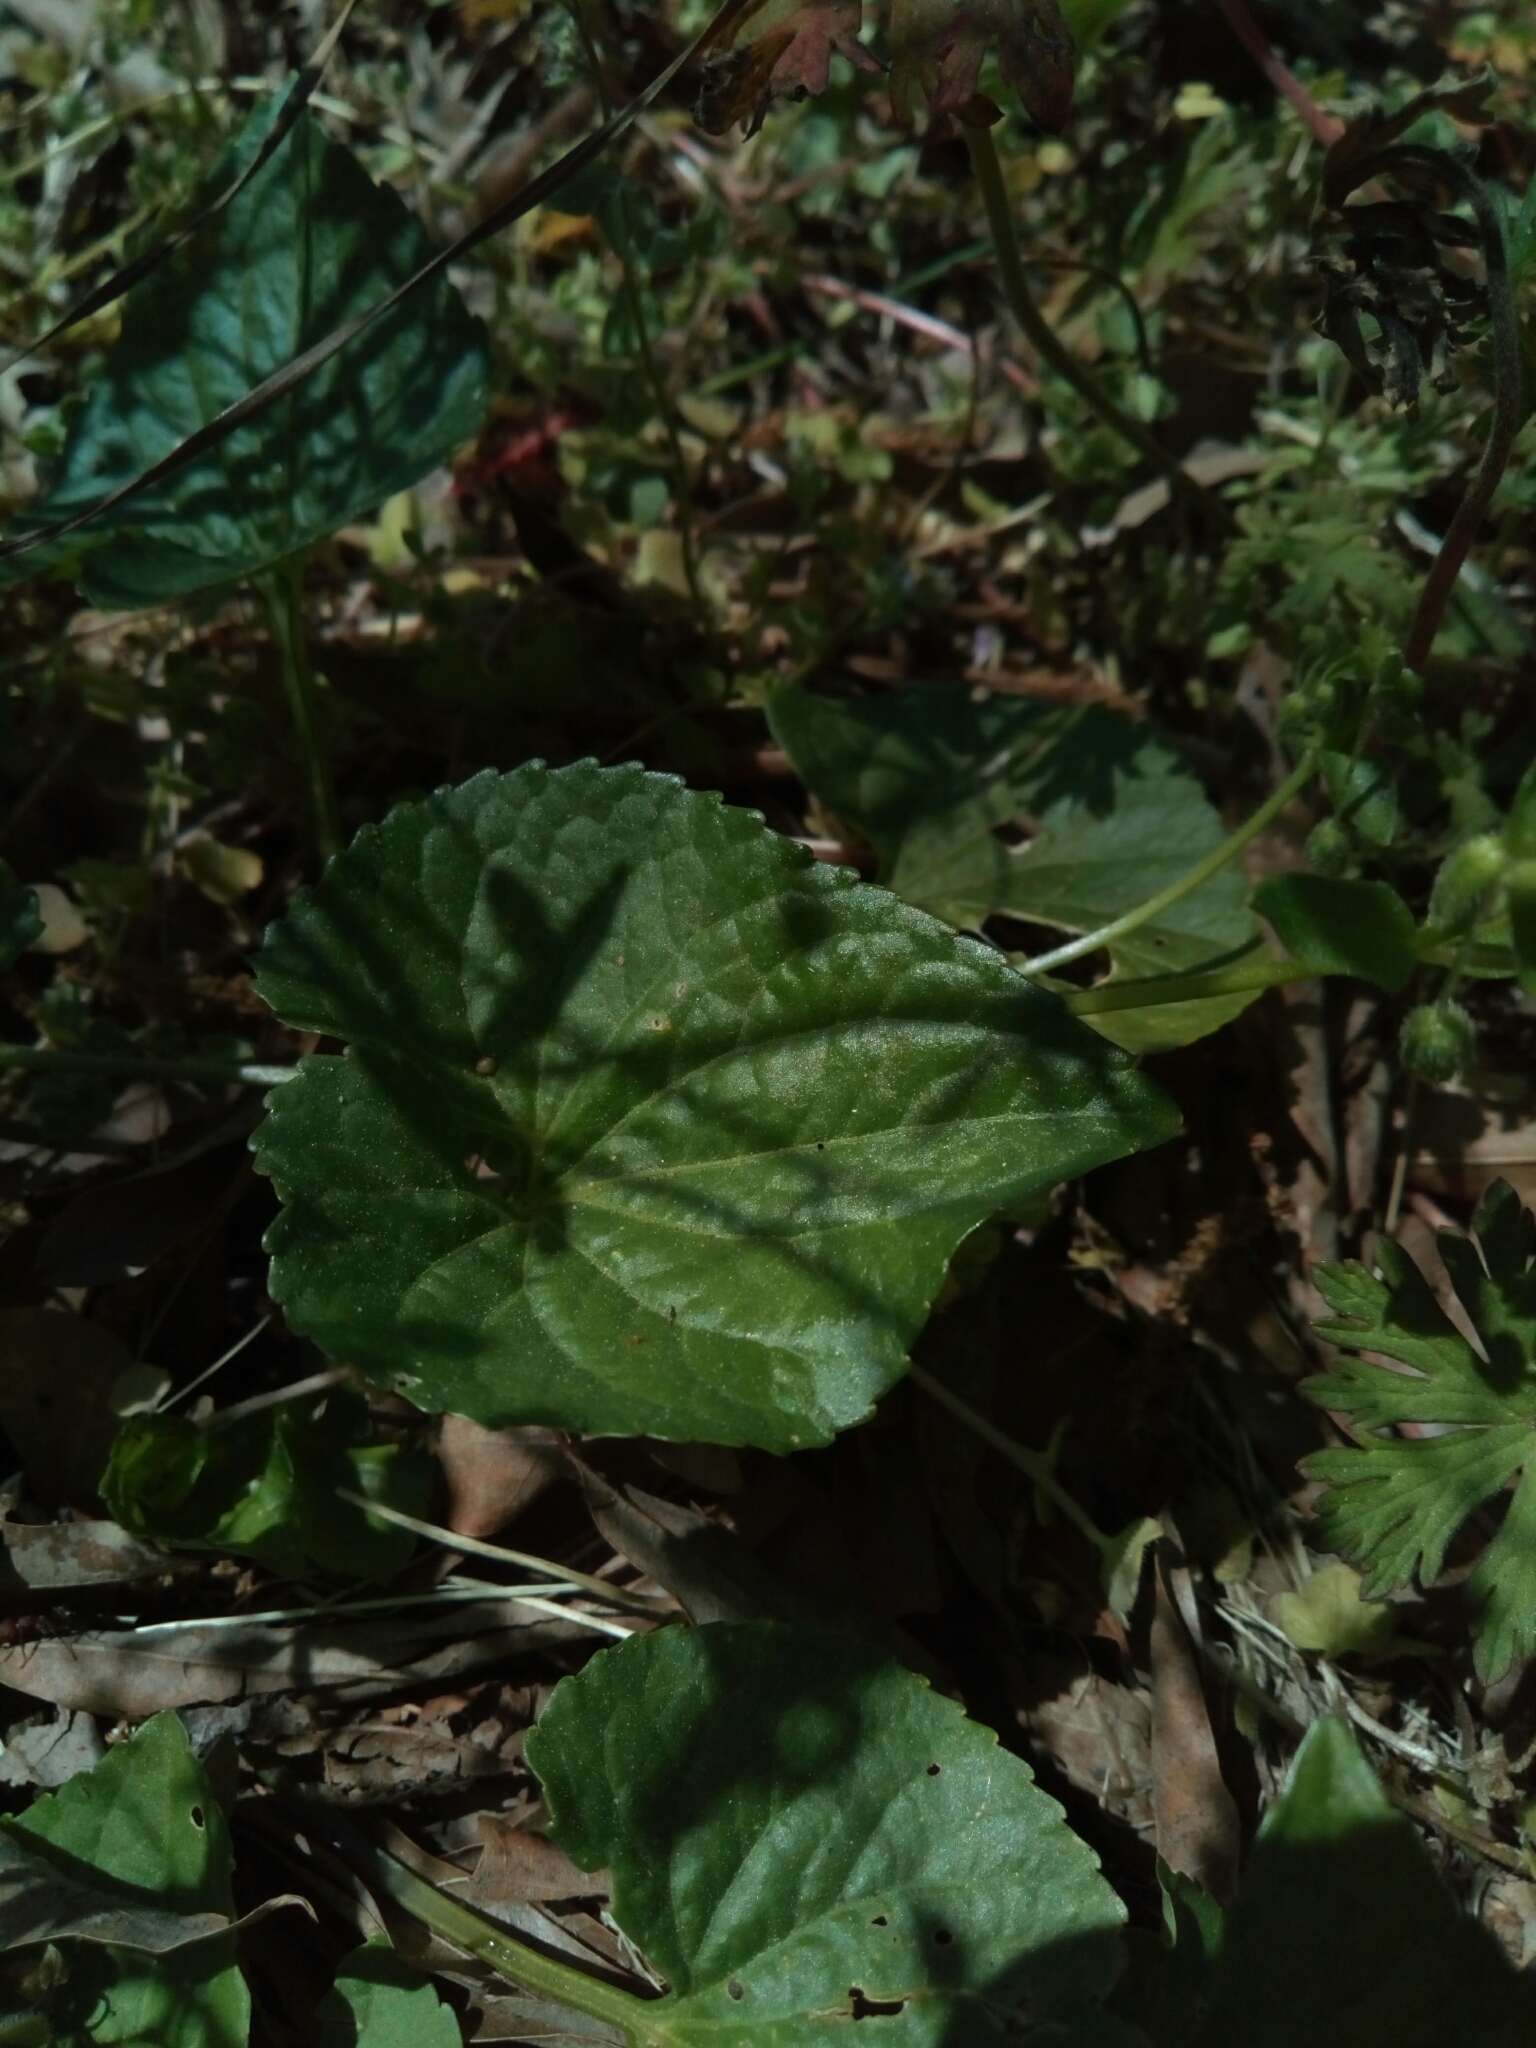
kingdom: Plantae
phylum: Tracheophyta
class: Magnoliopsida
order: Malpighiales
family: Violaceae
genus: Viola
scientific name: Viola sororia
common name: Dooryard violet
